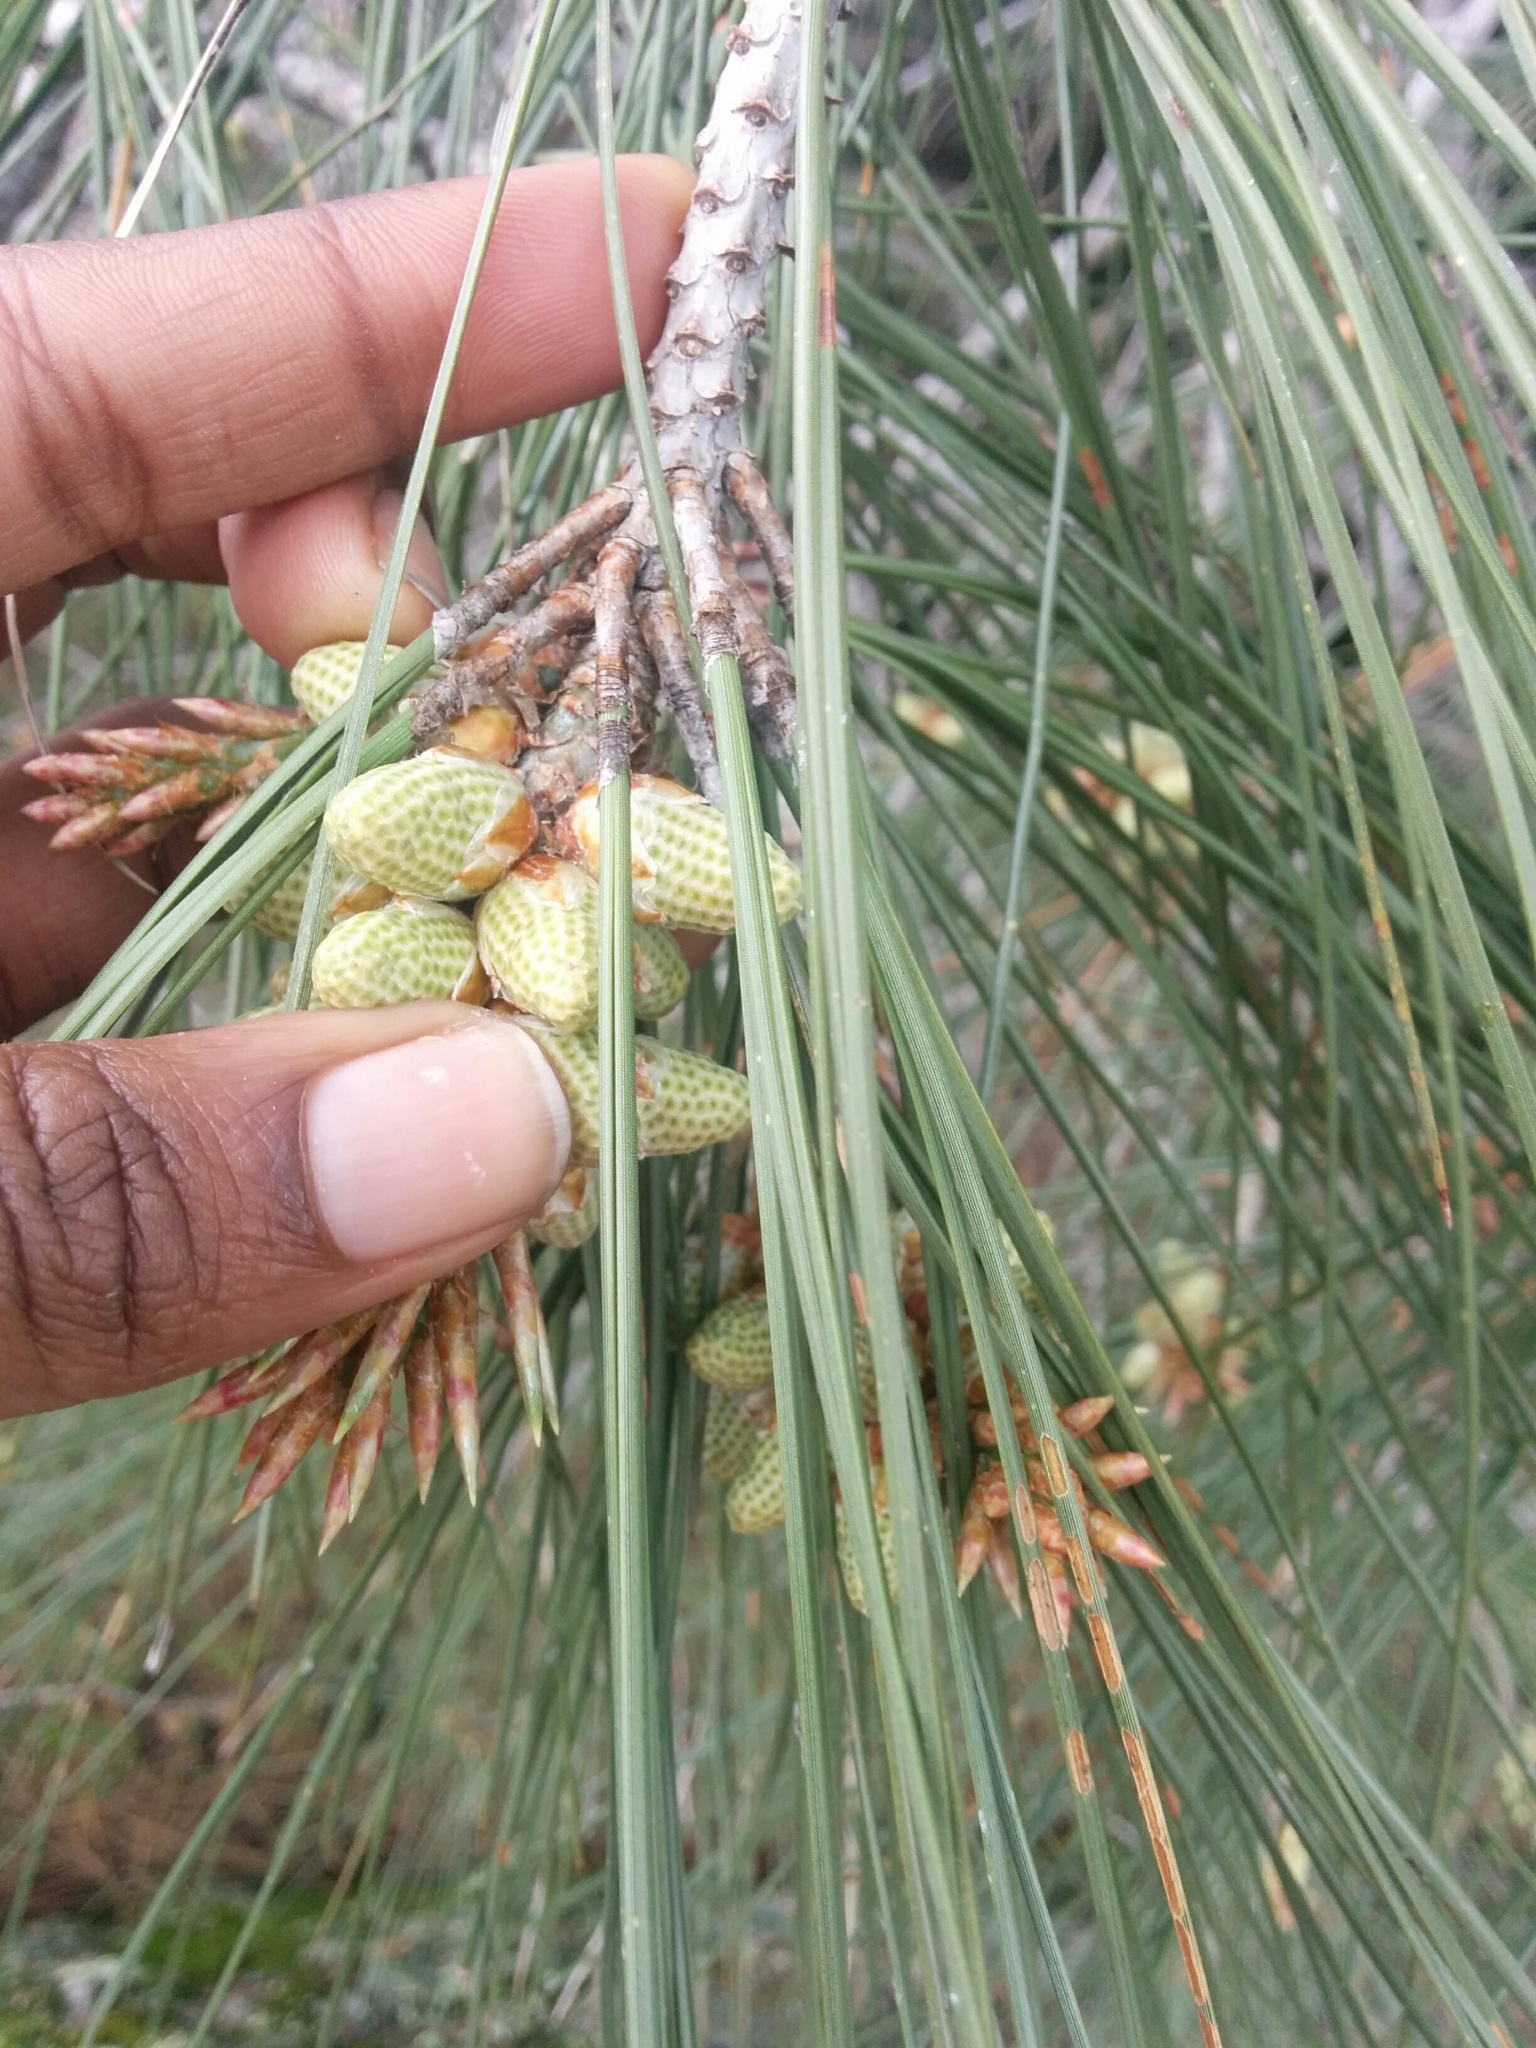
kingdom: Plantae
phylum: Tracheophyta
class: Pinopsida
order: Pinales
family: Pinaceae
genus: Pinus
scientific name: Pinus sabiniana
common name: Bull pine
